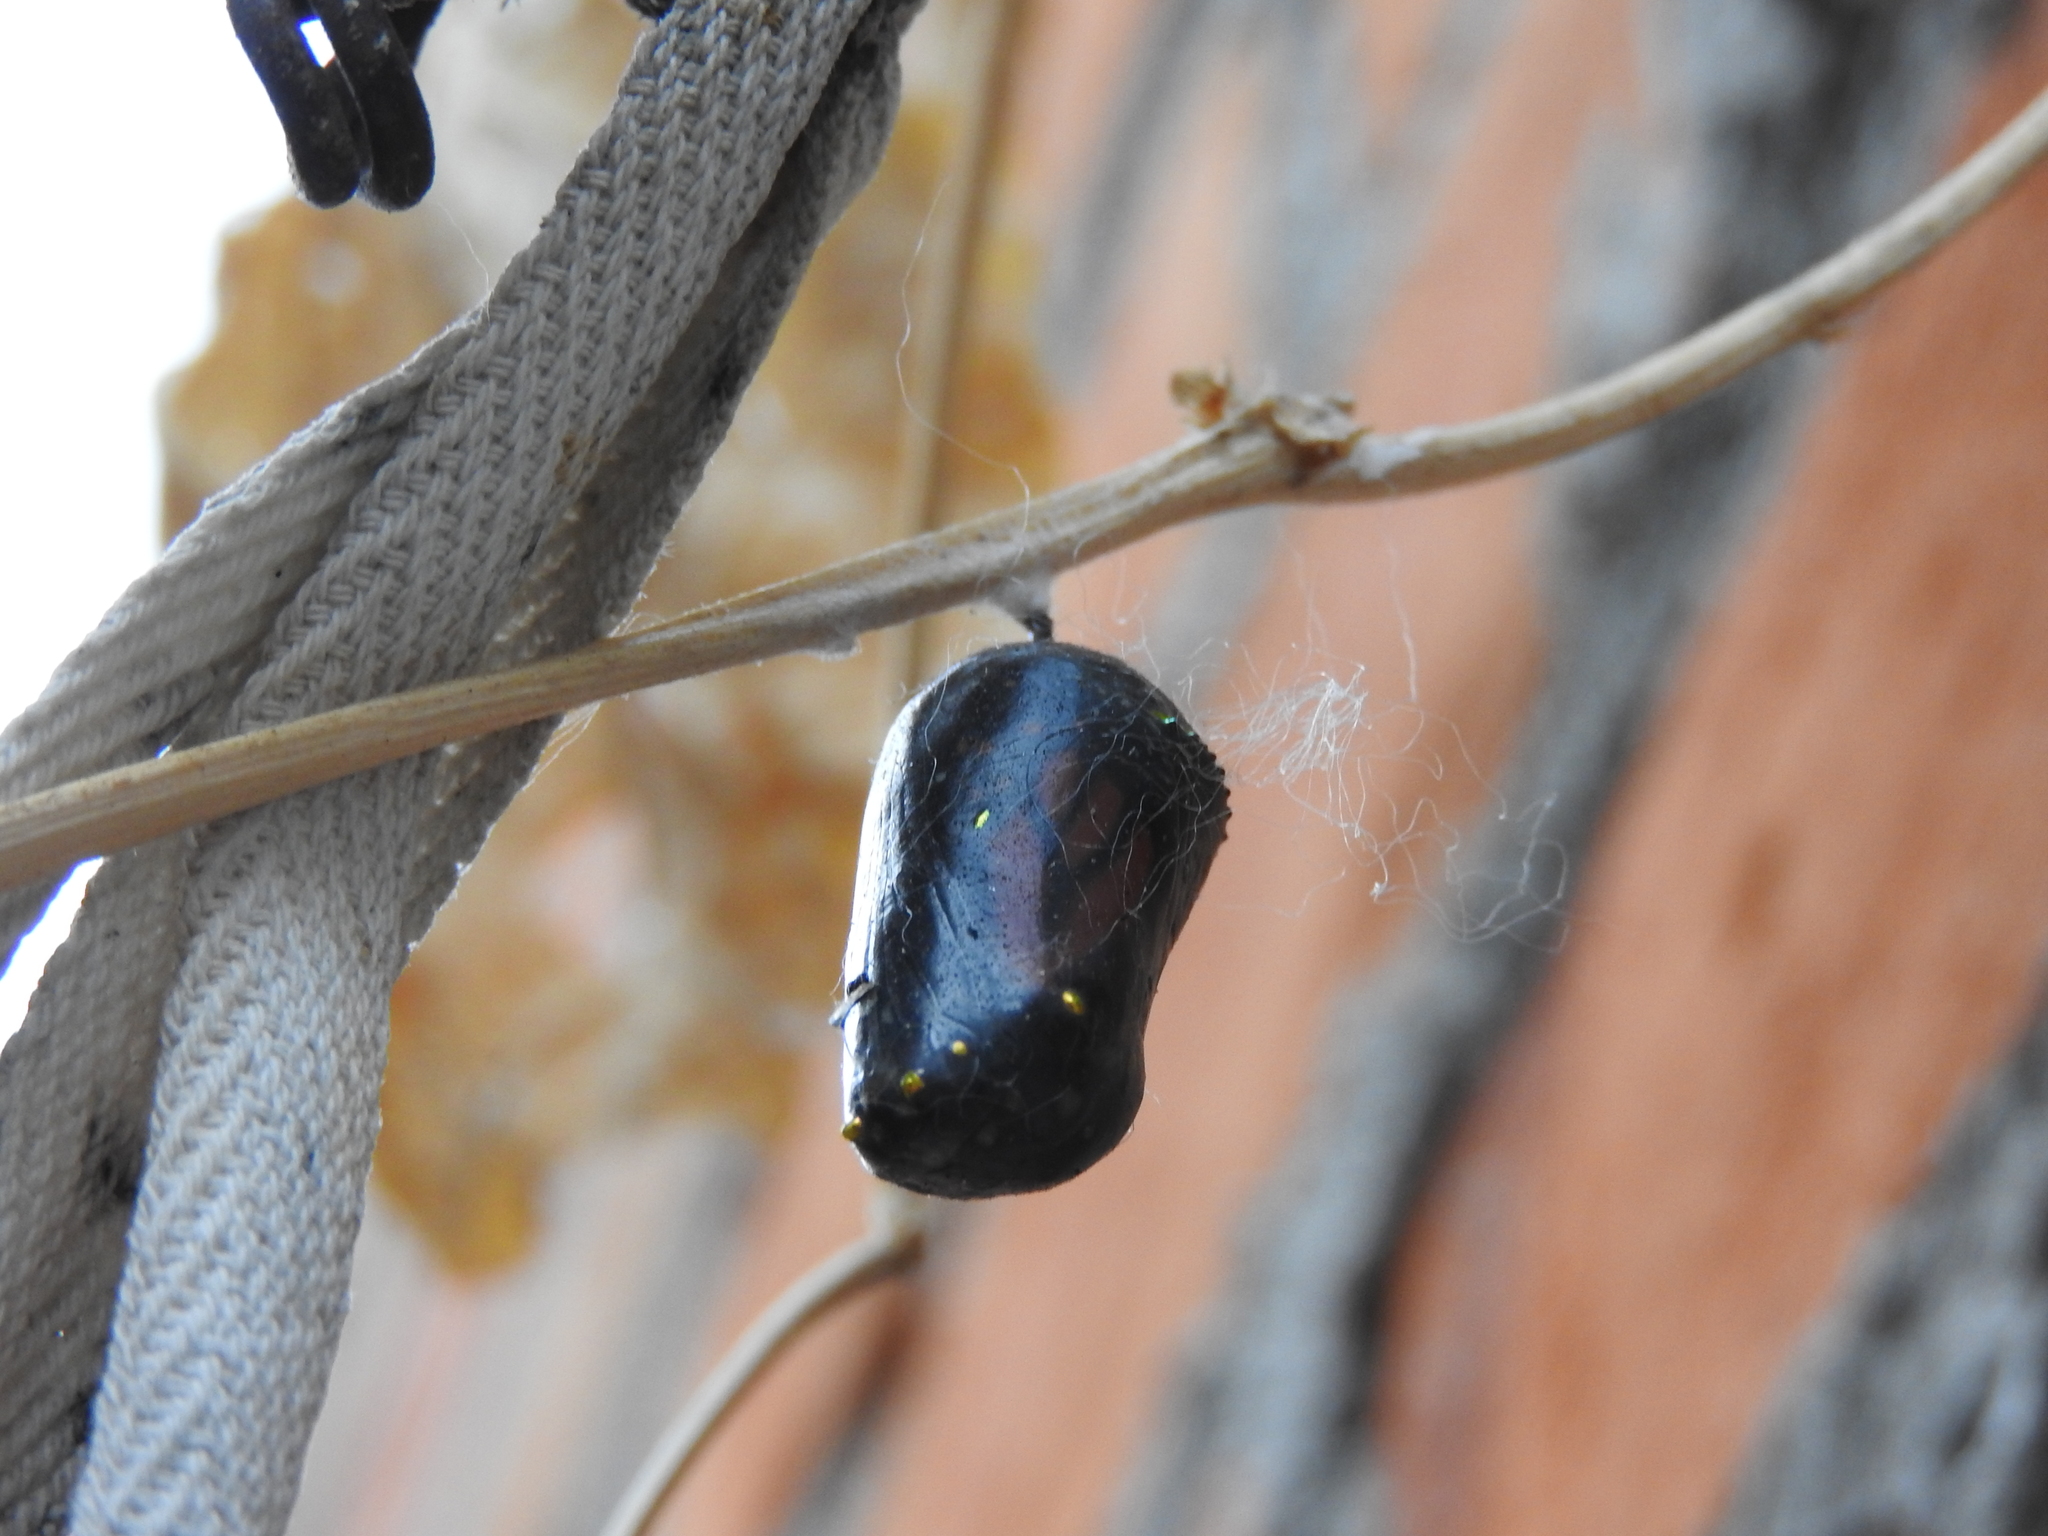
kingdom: Animalia
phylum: Arthropoda
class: Insecta
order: Lepidoptera
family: Nymphalidae
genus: Danaus
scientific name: Danaus plexippus
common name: Monarch
